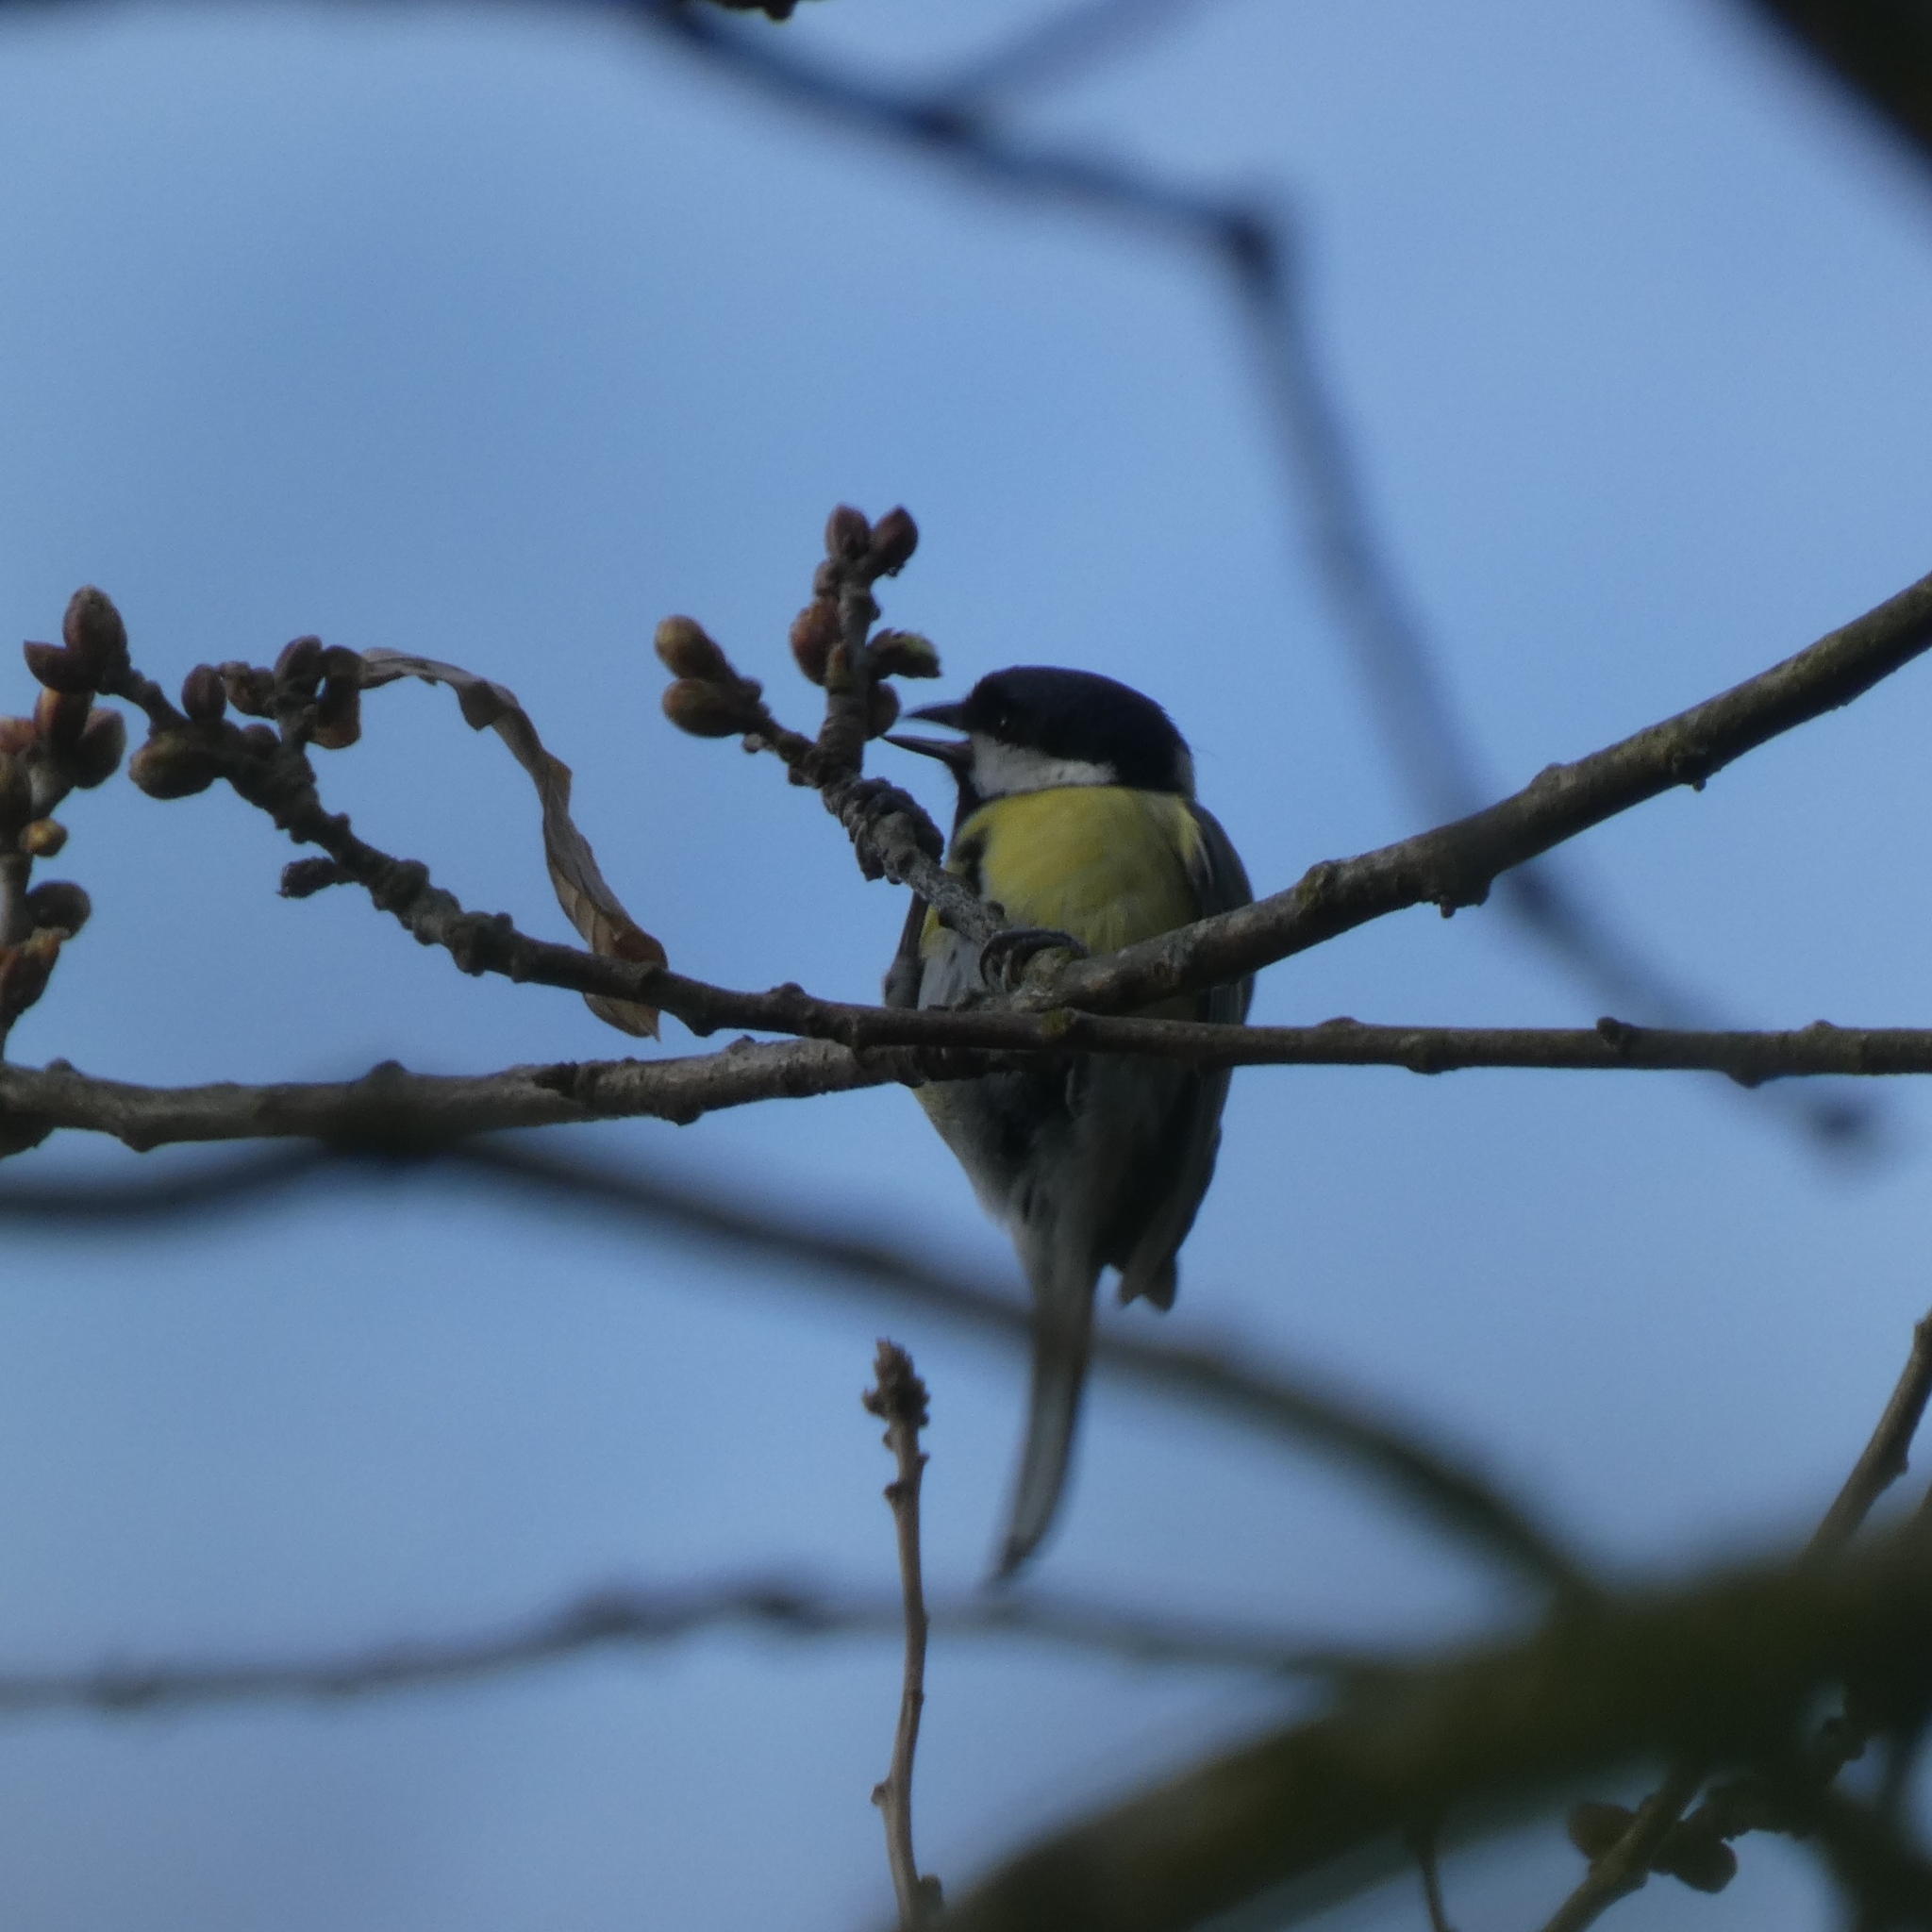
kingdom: Animalia
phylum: Chordata
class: Aves
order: Passeriformes
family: Paridae
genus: Parus
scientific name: Parus major
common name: Great tit
